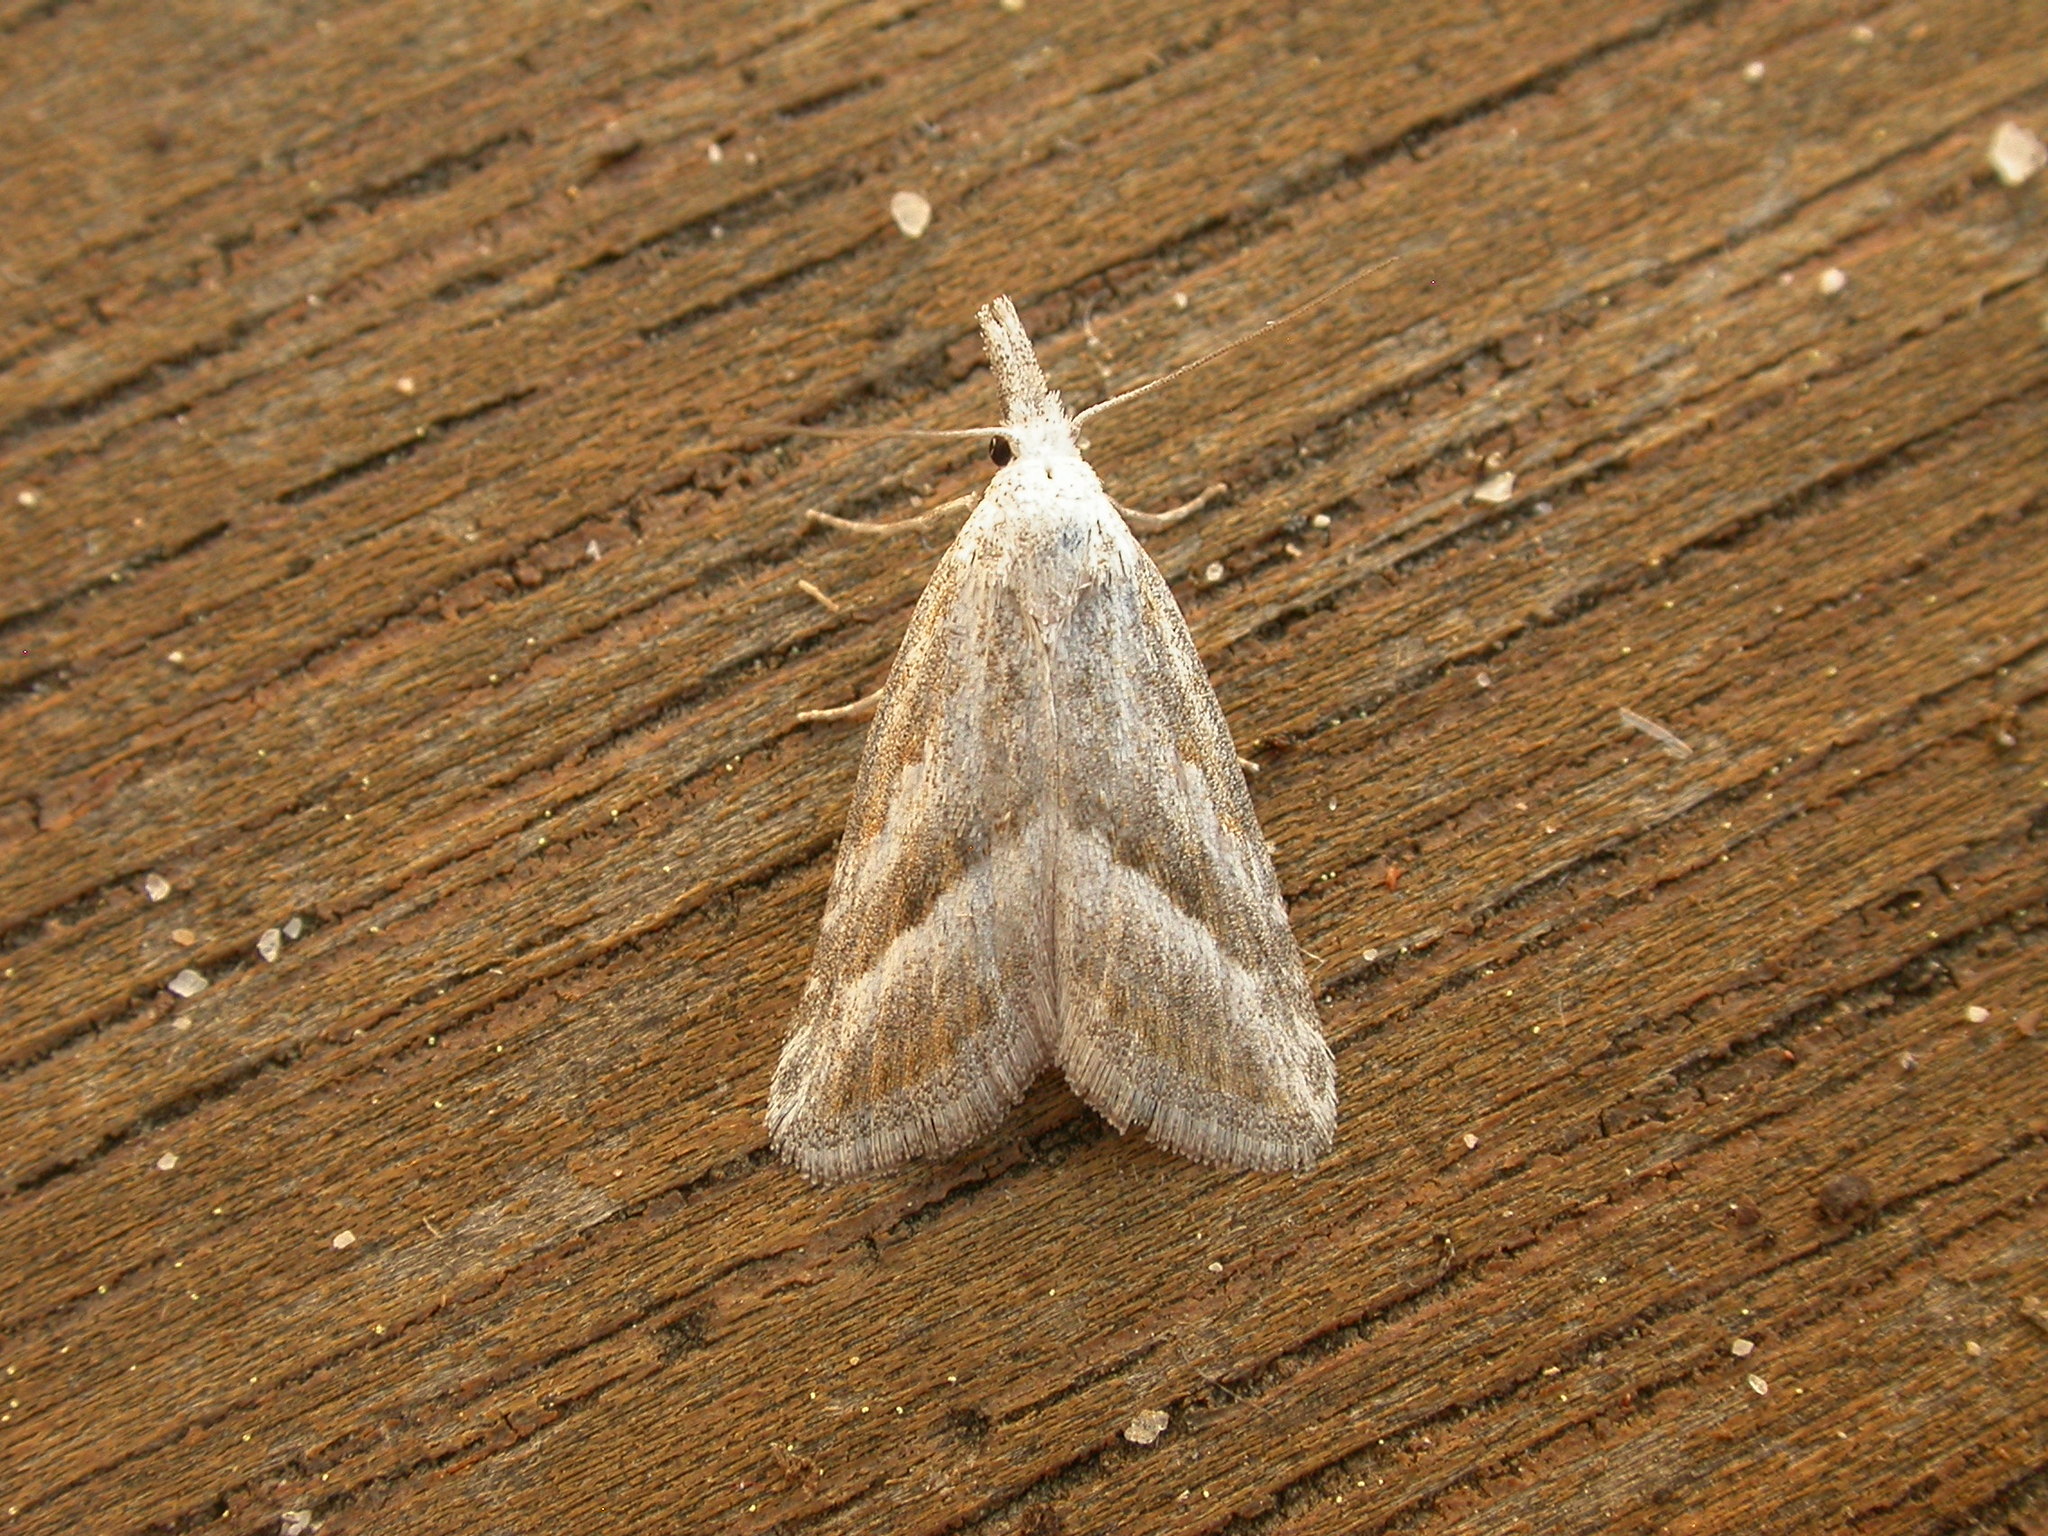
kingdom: Animalia
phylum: Arthropoda
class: Insecta
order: Lepidoptera
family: Nolidae
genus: Nola
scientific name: Nola paromoea
